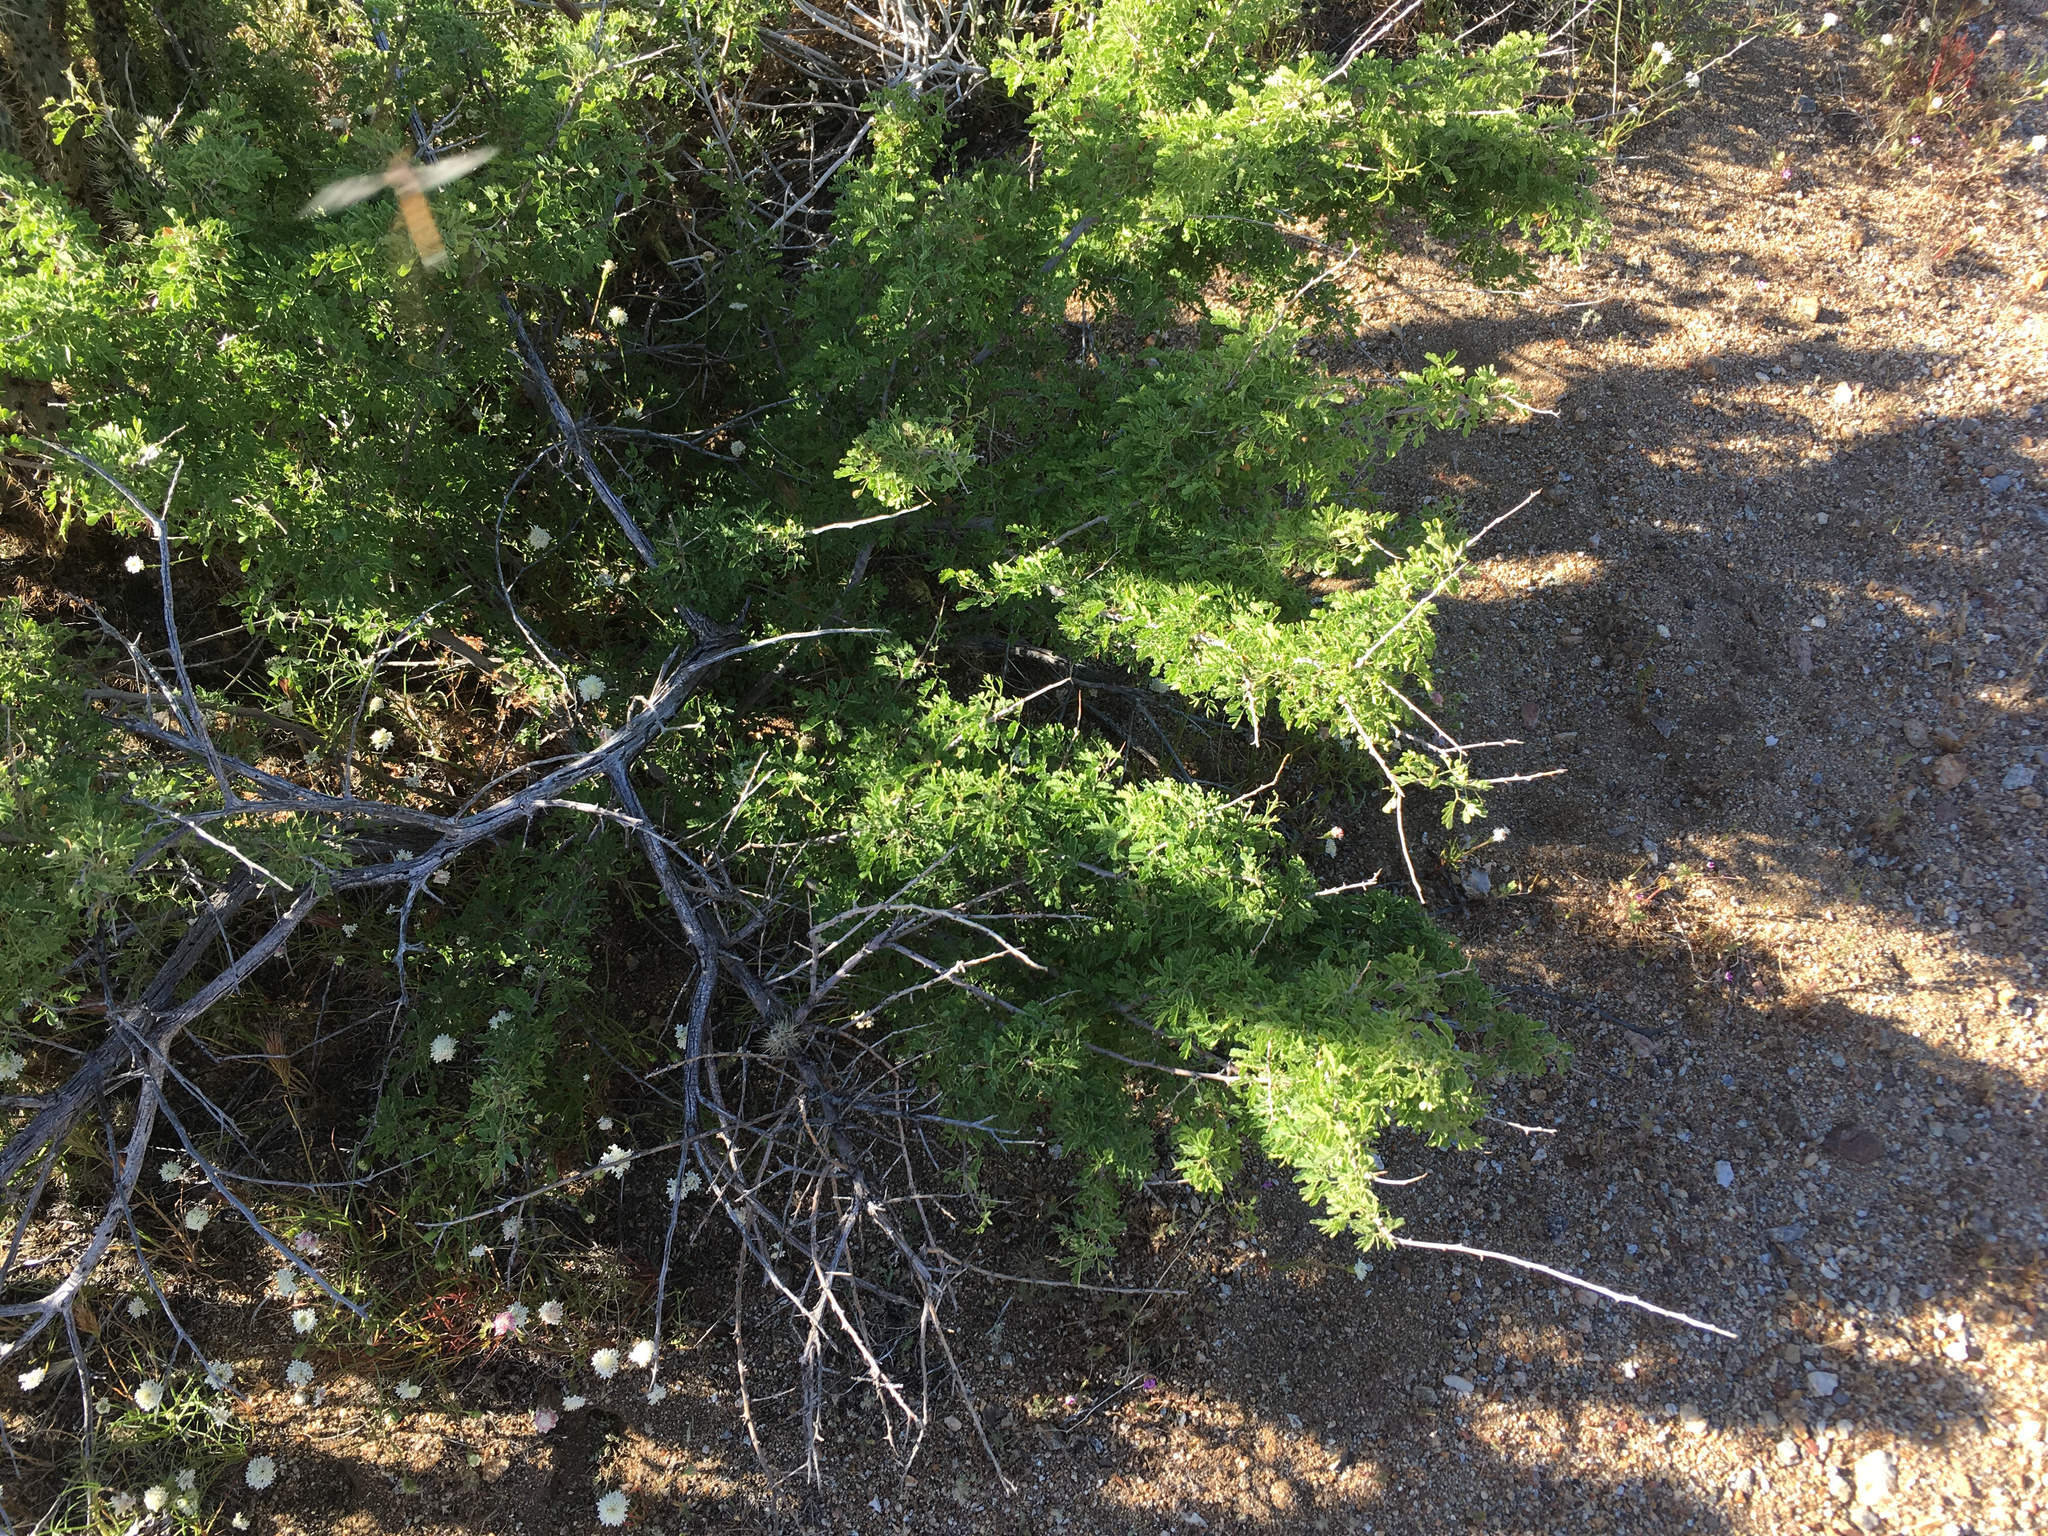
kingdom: Plantae
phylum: Tracheophyta
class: Magnoliopsida
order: Fabales
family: Fabaceae
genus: Senegalia
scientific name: Senegalia greggii
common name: Texas-mimosa
